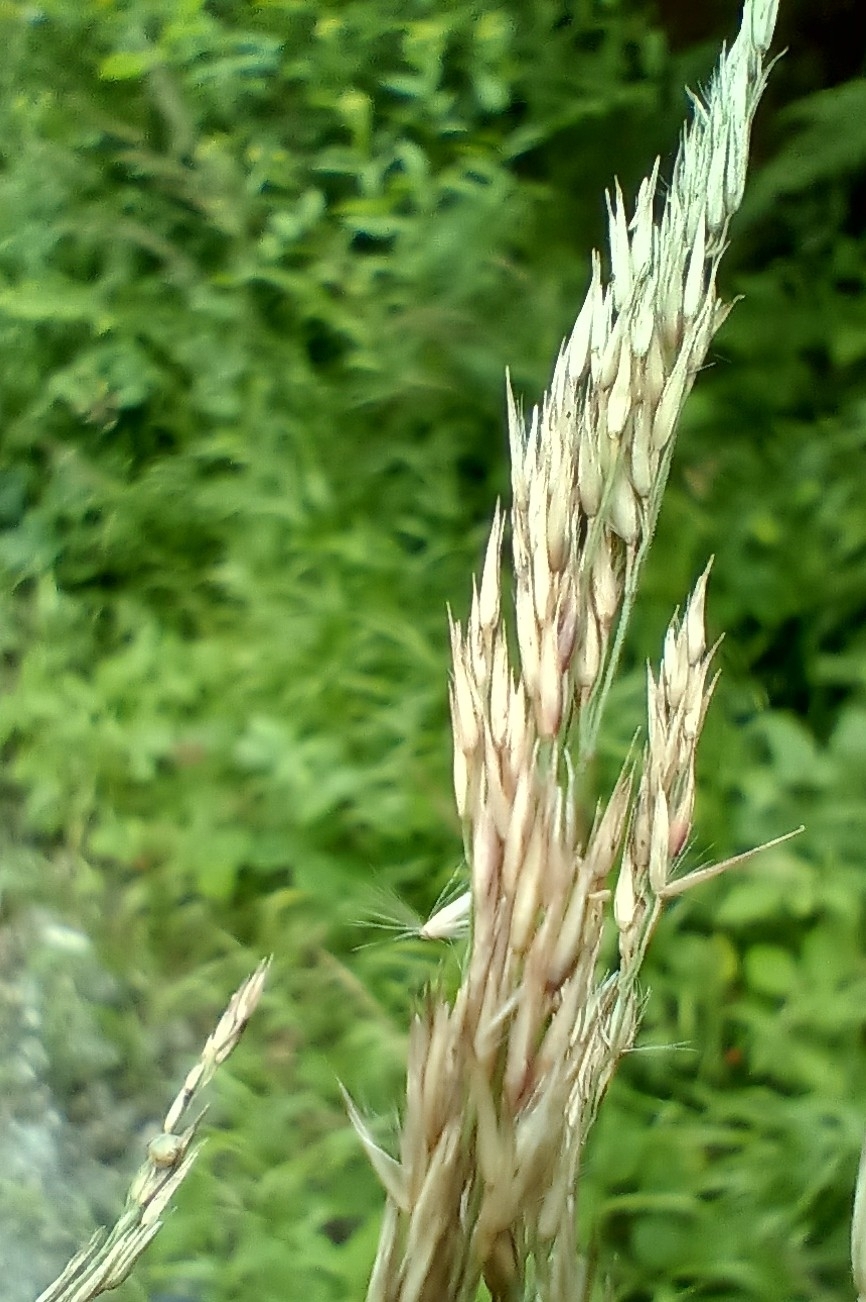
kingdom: Plantae
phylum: Tracheophyta
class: Liliopsida
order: Poales
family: Poaceae
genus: Calamagrostis
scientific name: Calamagrostis villosa
